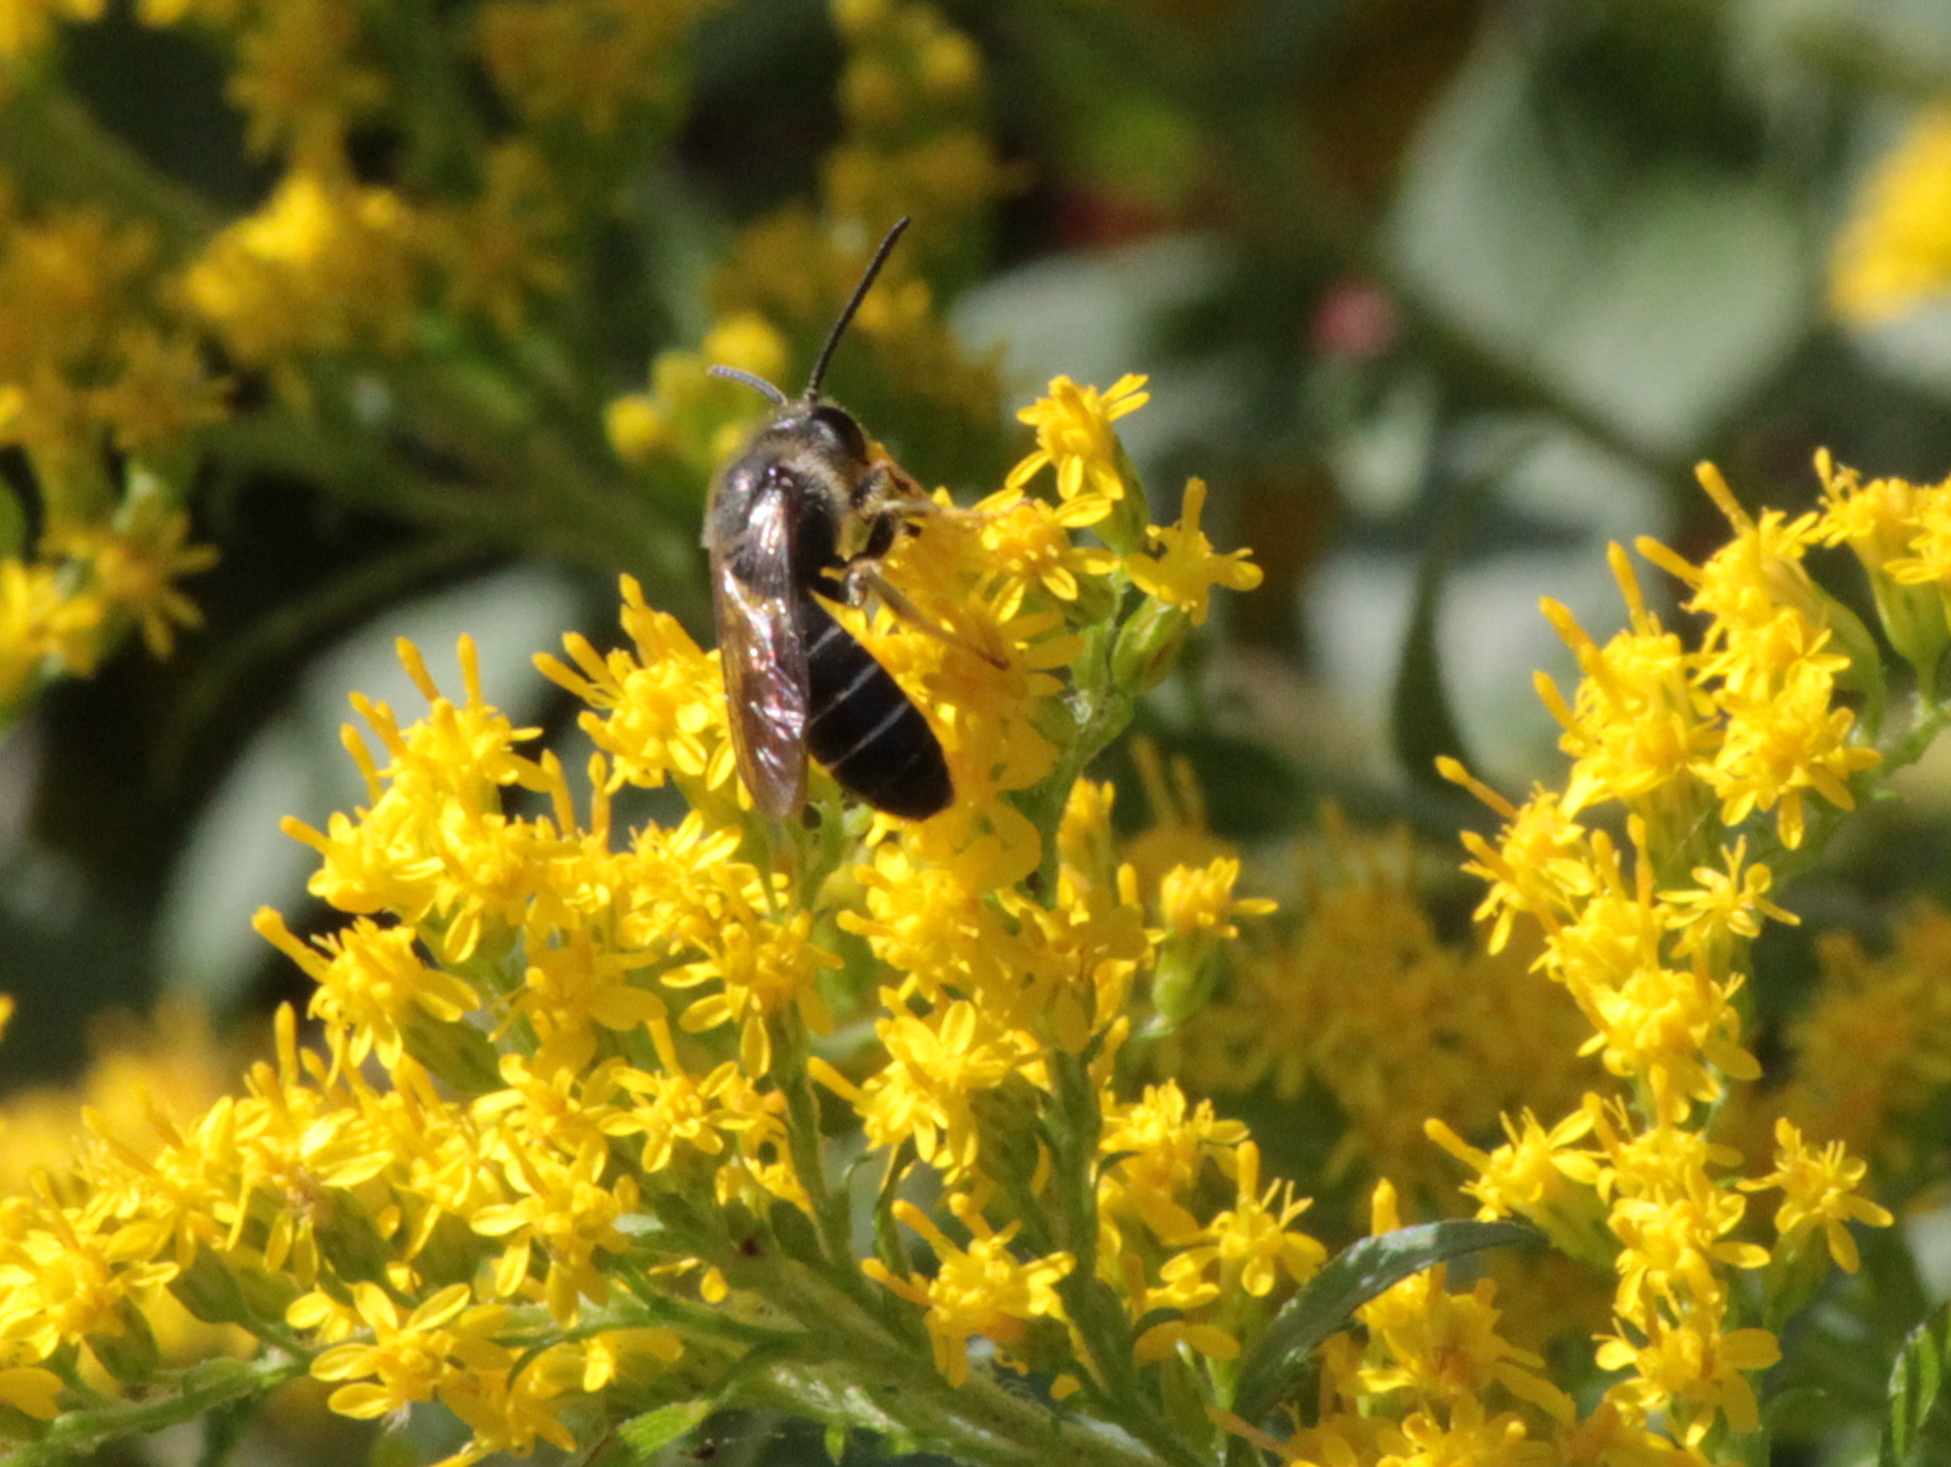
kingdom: Animalia
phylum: Arthropoda
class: Insecta
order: Hymenoptera
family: Halictidae
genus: Halictus
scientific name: Halictus rubicundus
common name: Orange-legged furrow bee
